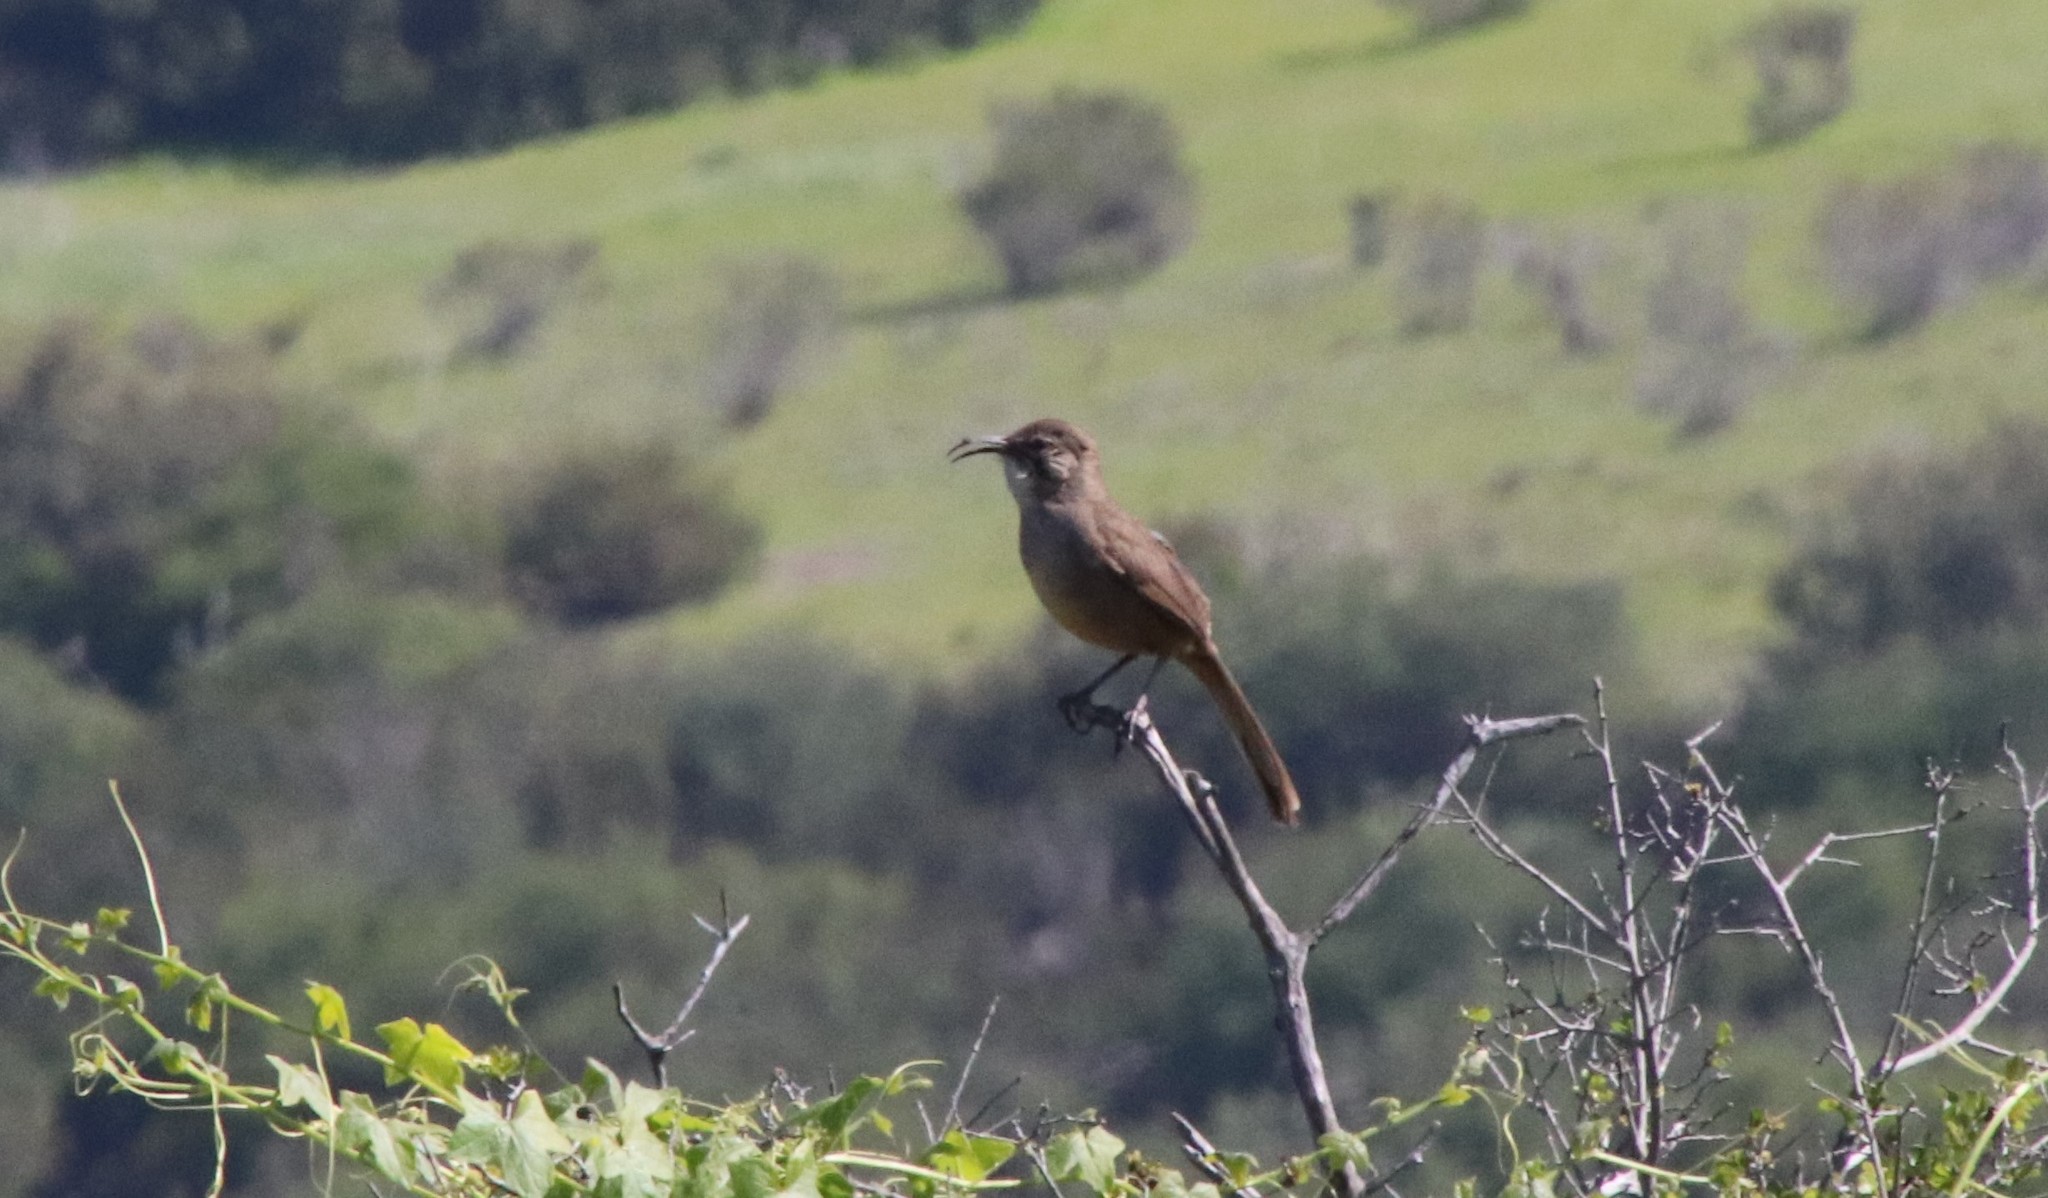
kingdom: Animalia
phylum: Chordata
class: Aves
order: Passeriformes
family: Mimidae
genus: Toxostoma
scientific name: Toxostoma redivivum
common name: California thrasher
